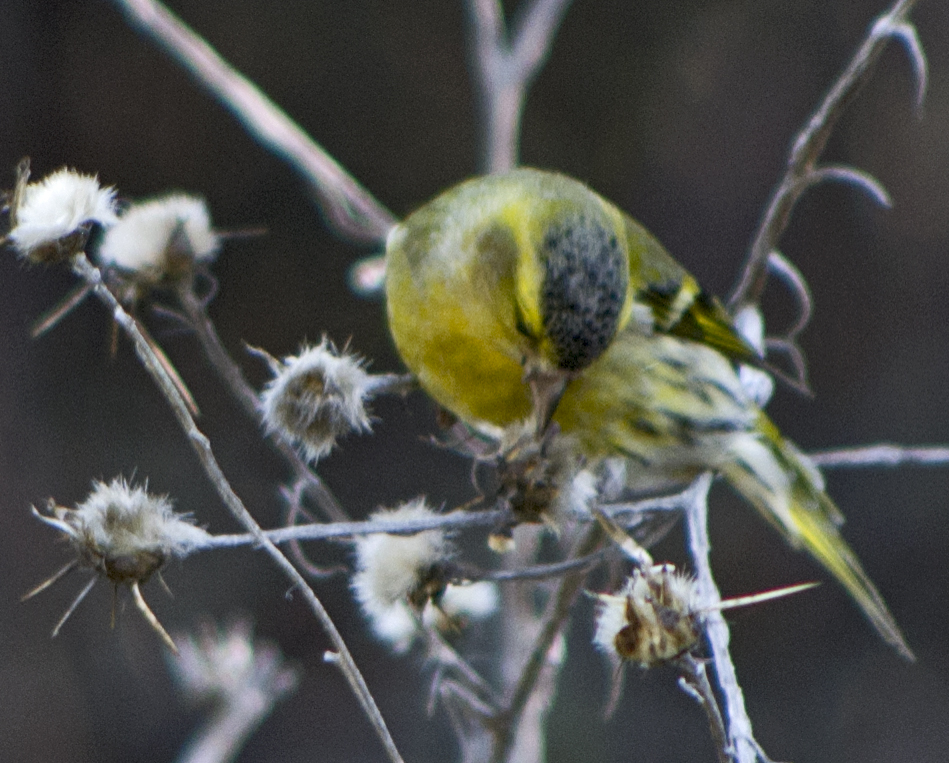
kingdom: Animalia
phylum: Chordata
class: Aves
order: Passeriformes
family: Fringillidae
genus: Spinus
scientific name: Spinus spinus
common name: Eurasian siskin
